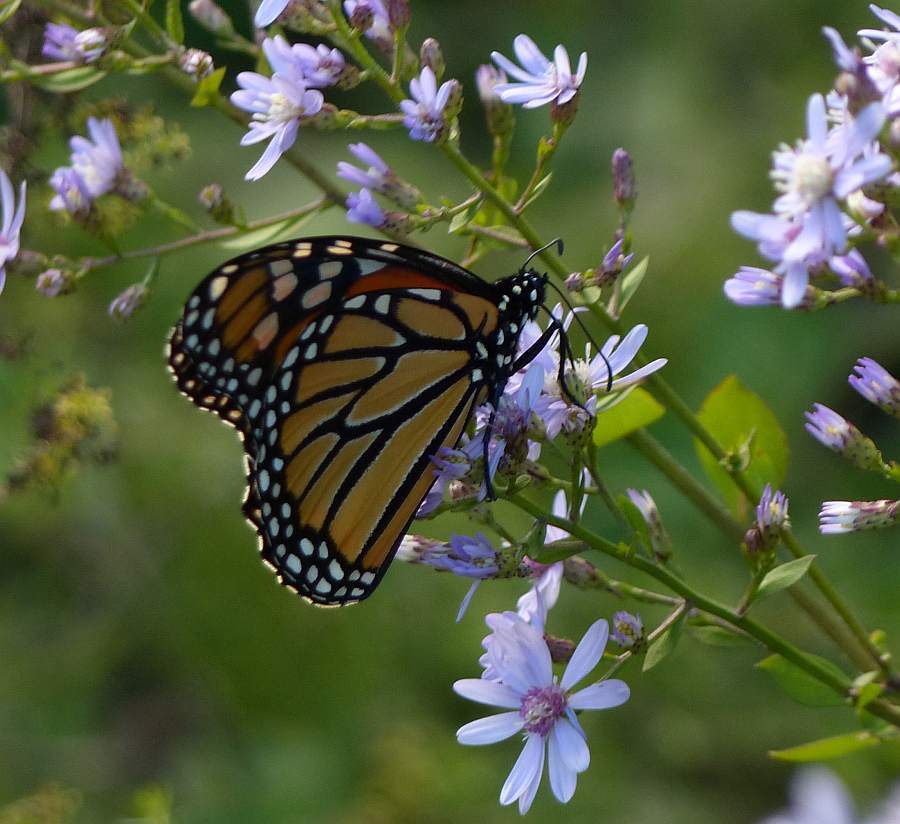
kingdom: Animalia
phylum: Arthropoda
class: Insecta
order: Lepidoptera
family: Nymphalidae
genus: Danaus
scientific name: Danaus plexippus
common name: Monarch
